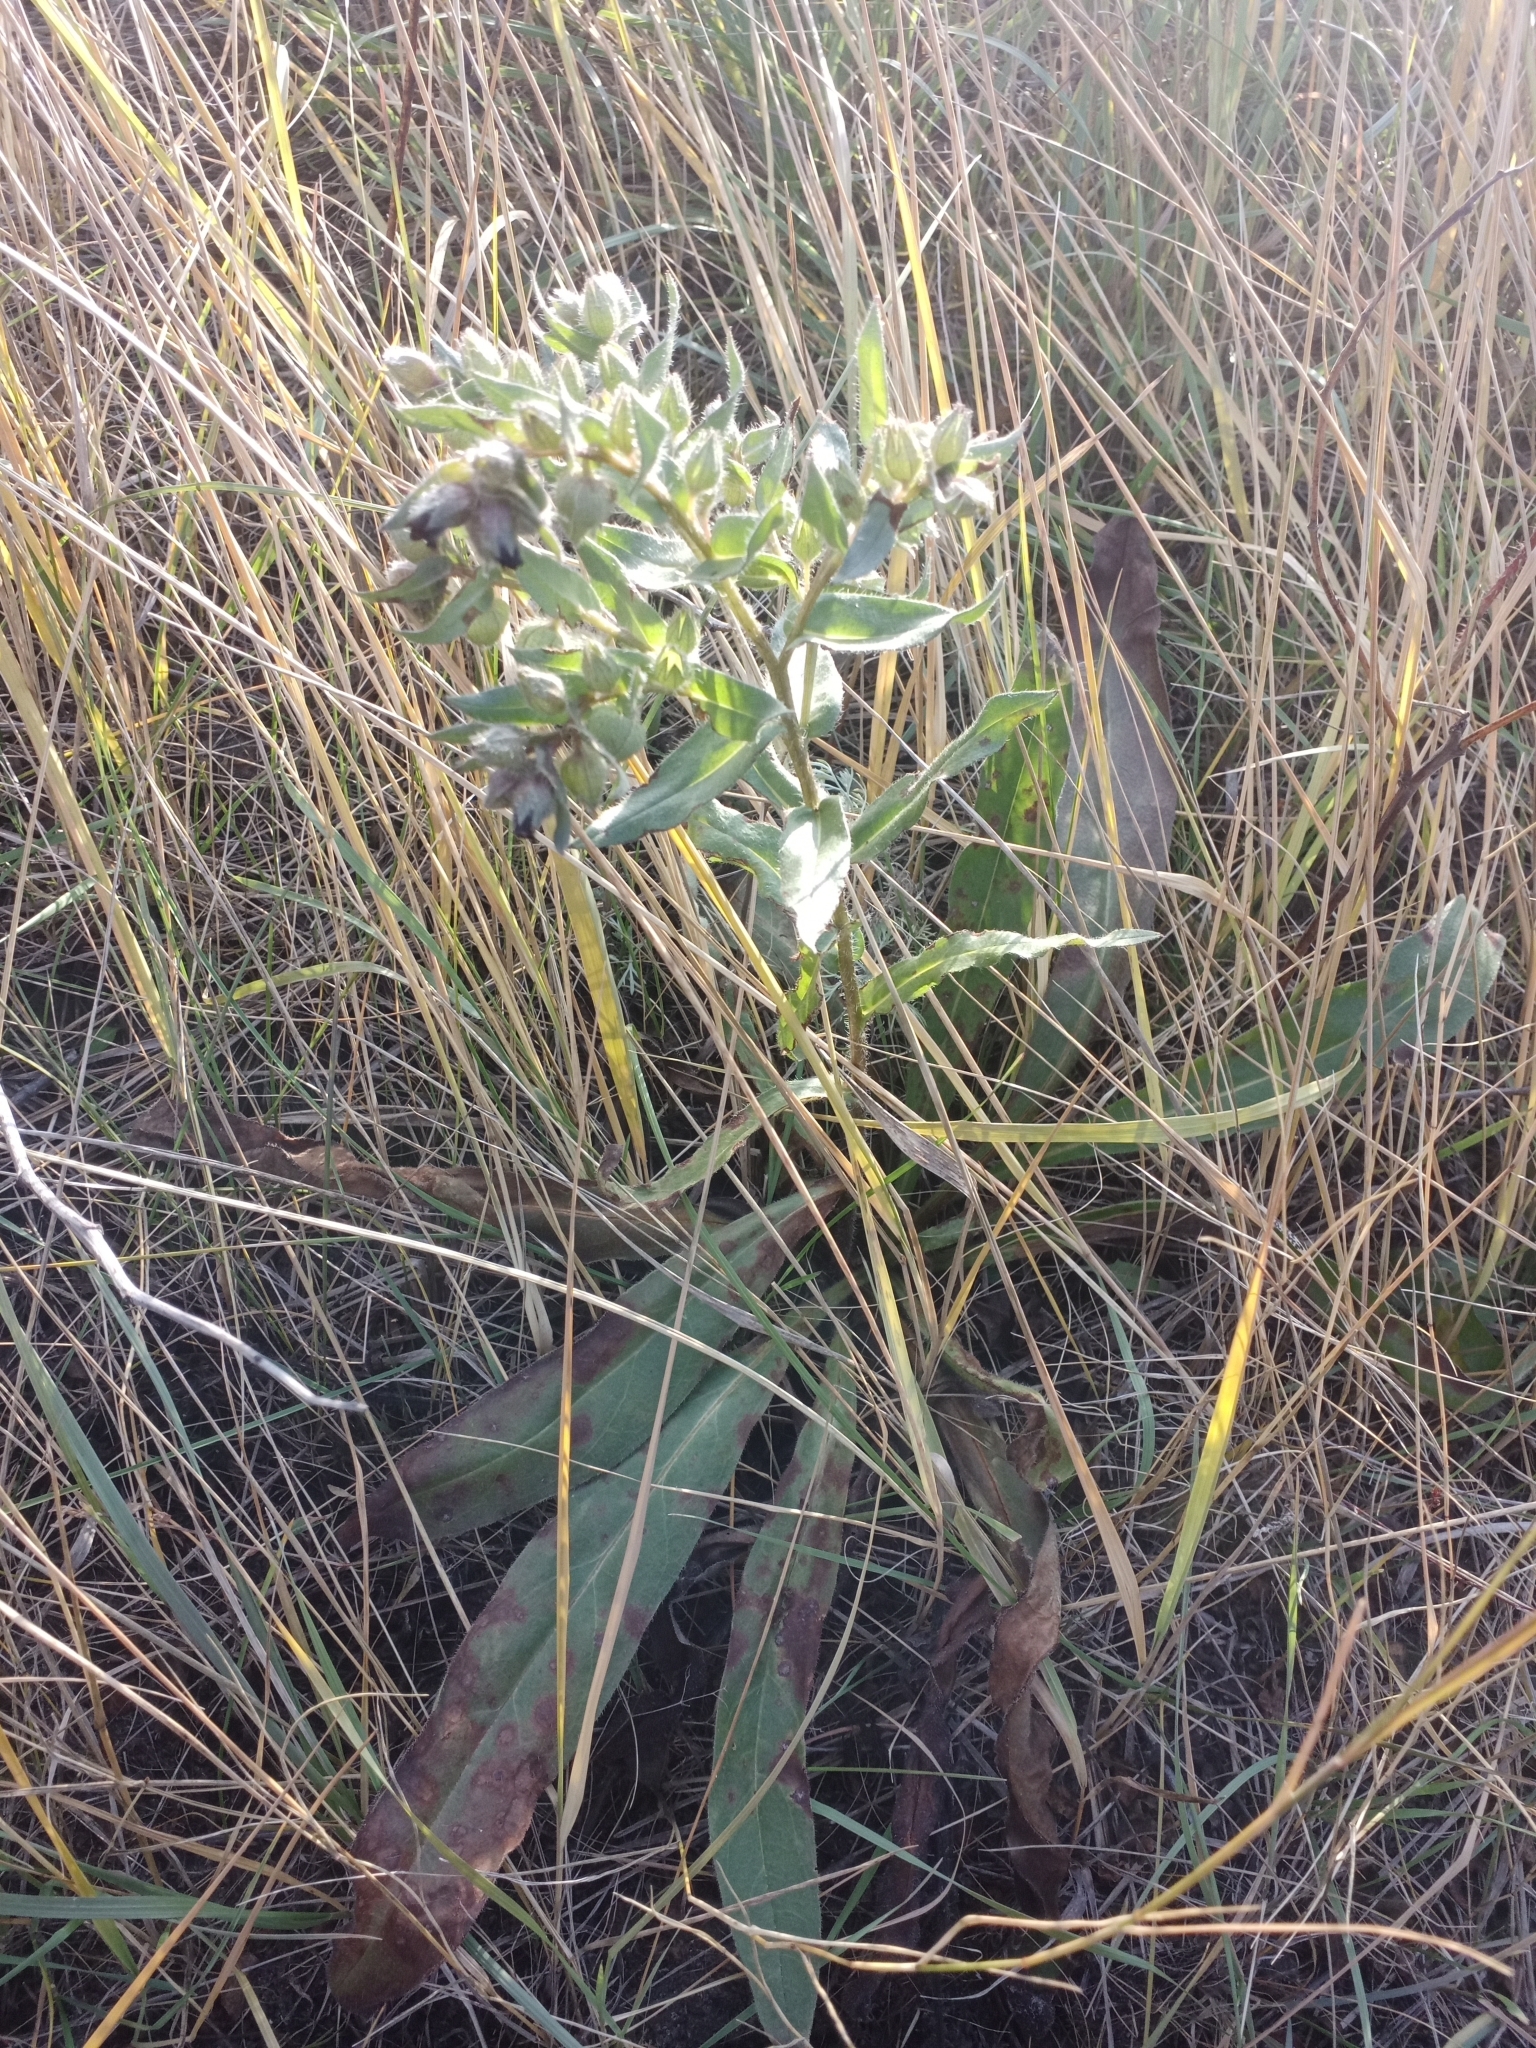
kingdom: Plantae
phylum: Tracheophyta
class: Magnoliopsida
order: Boraginales
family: Boraginaceae
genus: Nonea
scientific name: Nonea pulla
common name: Brown nonea
